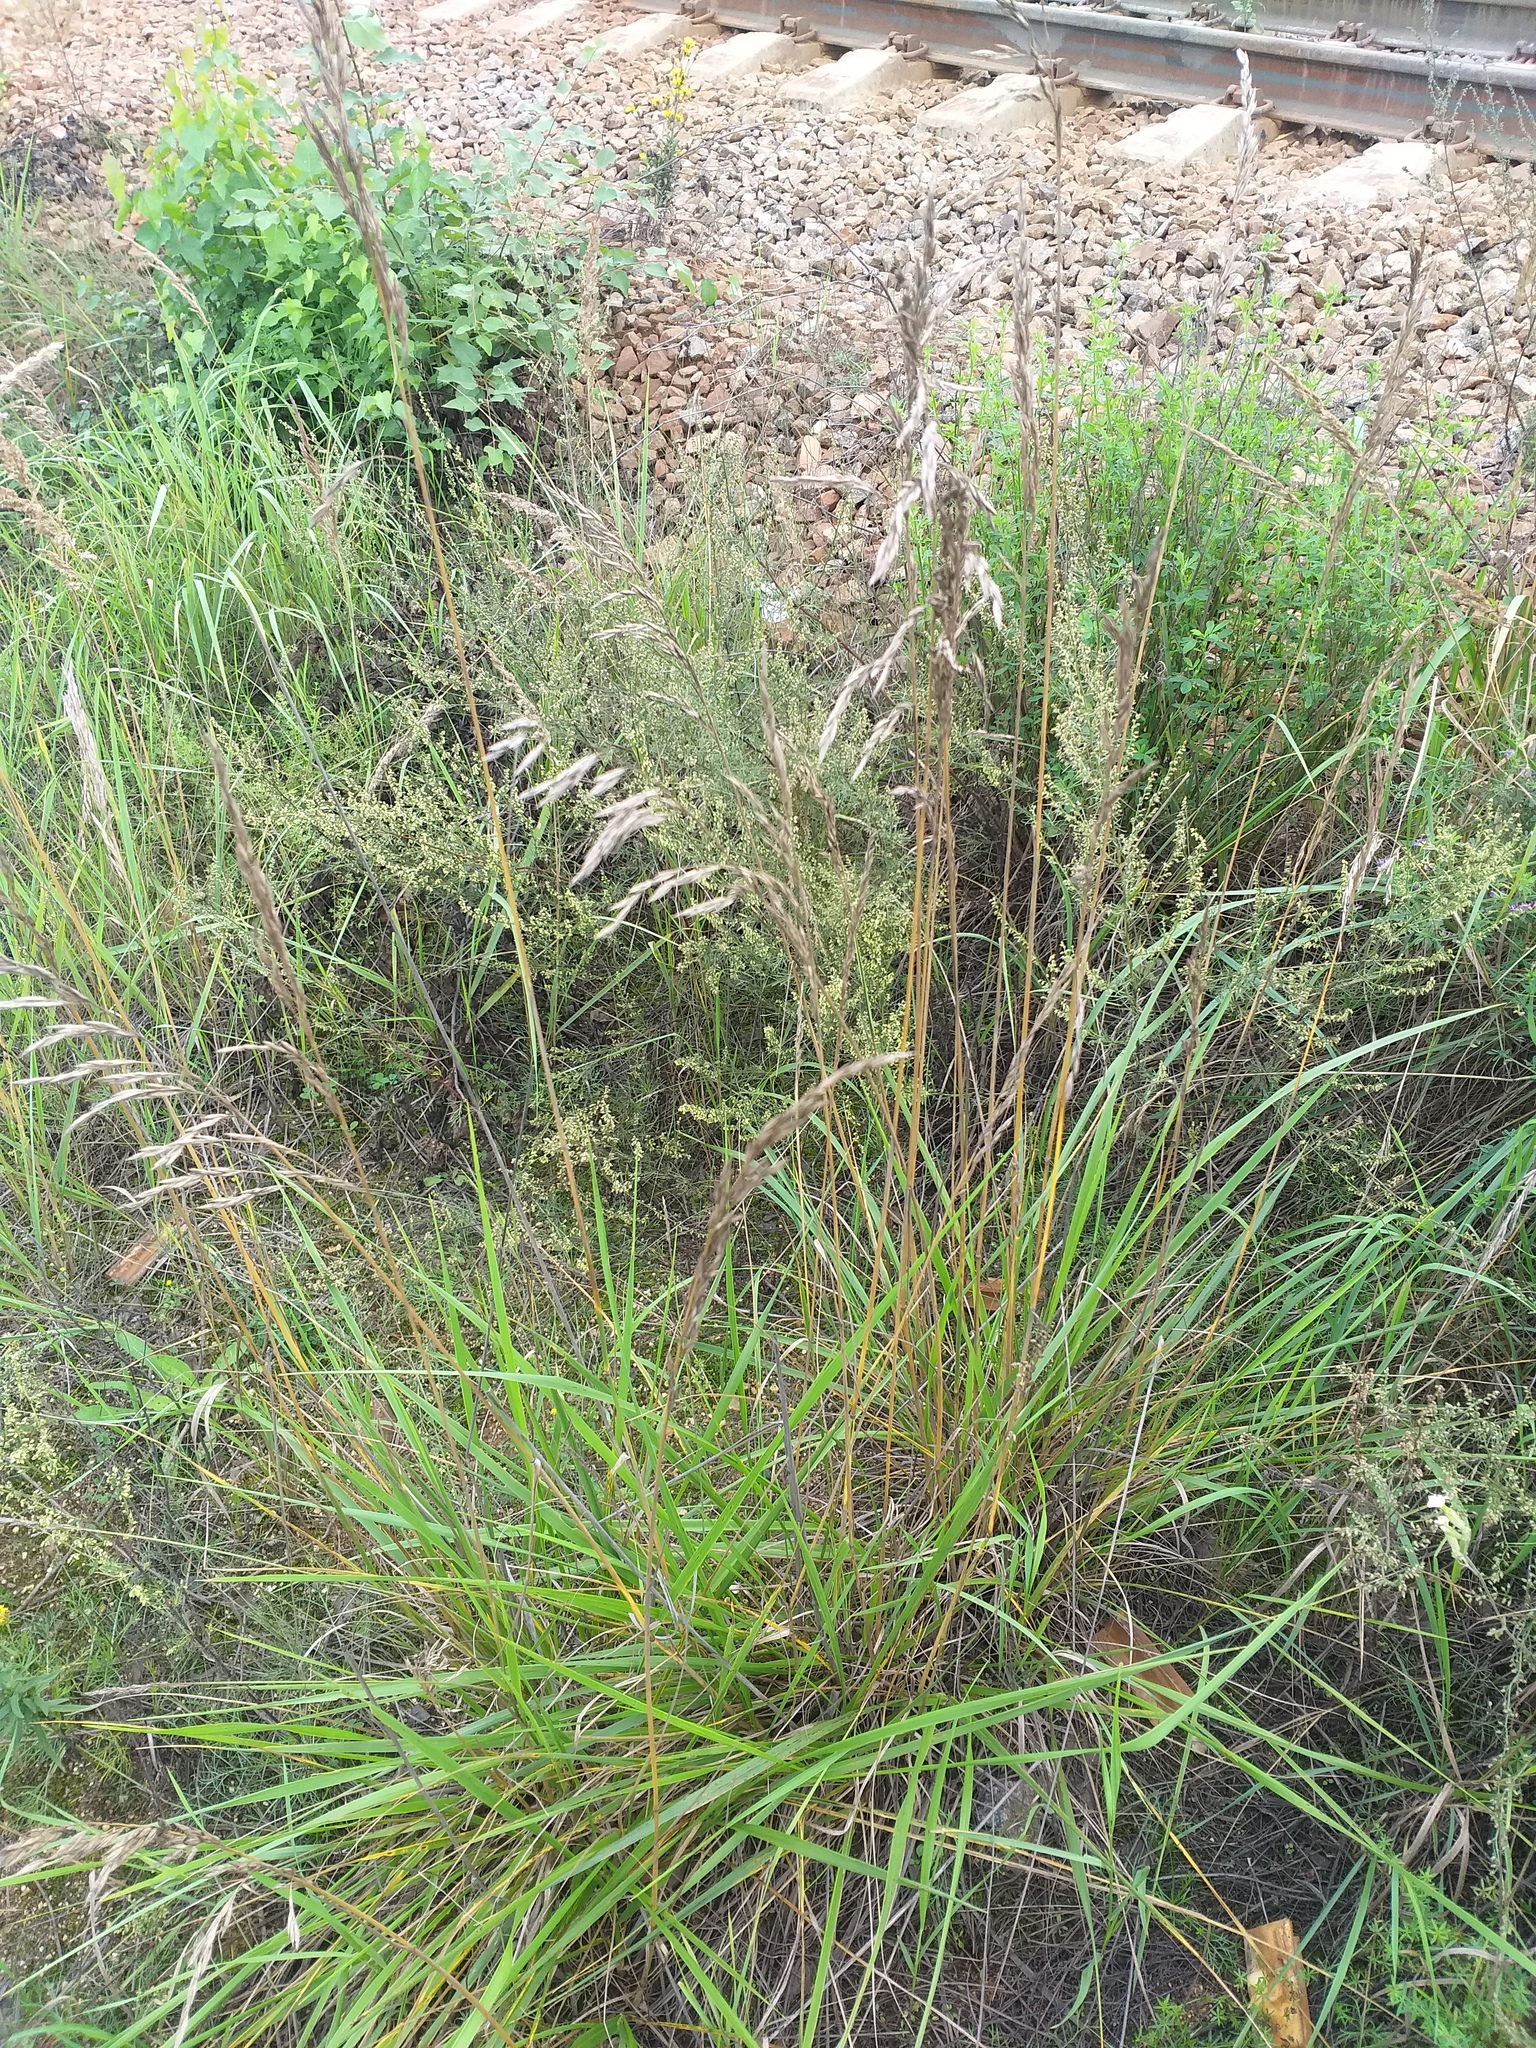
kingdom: Plantae
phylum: Tracheophyta
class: Liliopsida
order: Poales
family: Poaceae
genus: Lolium
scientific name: Lolium arundinaceum
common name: Reed fescue
